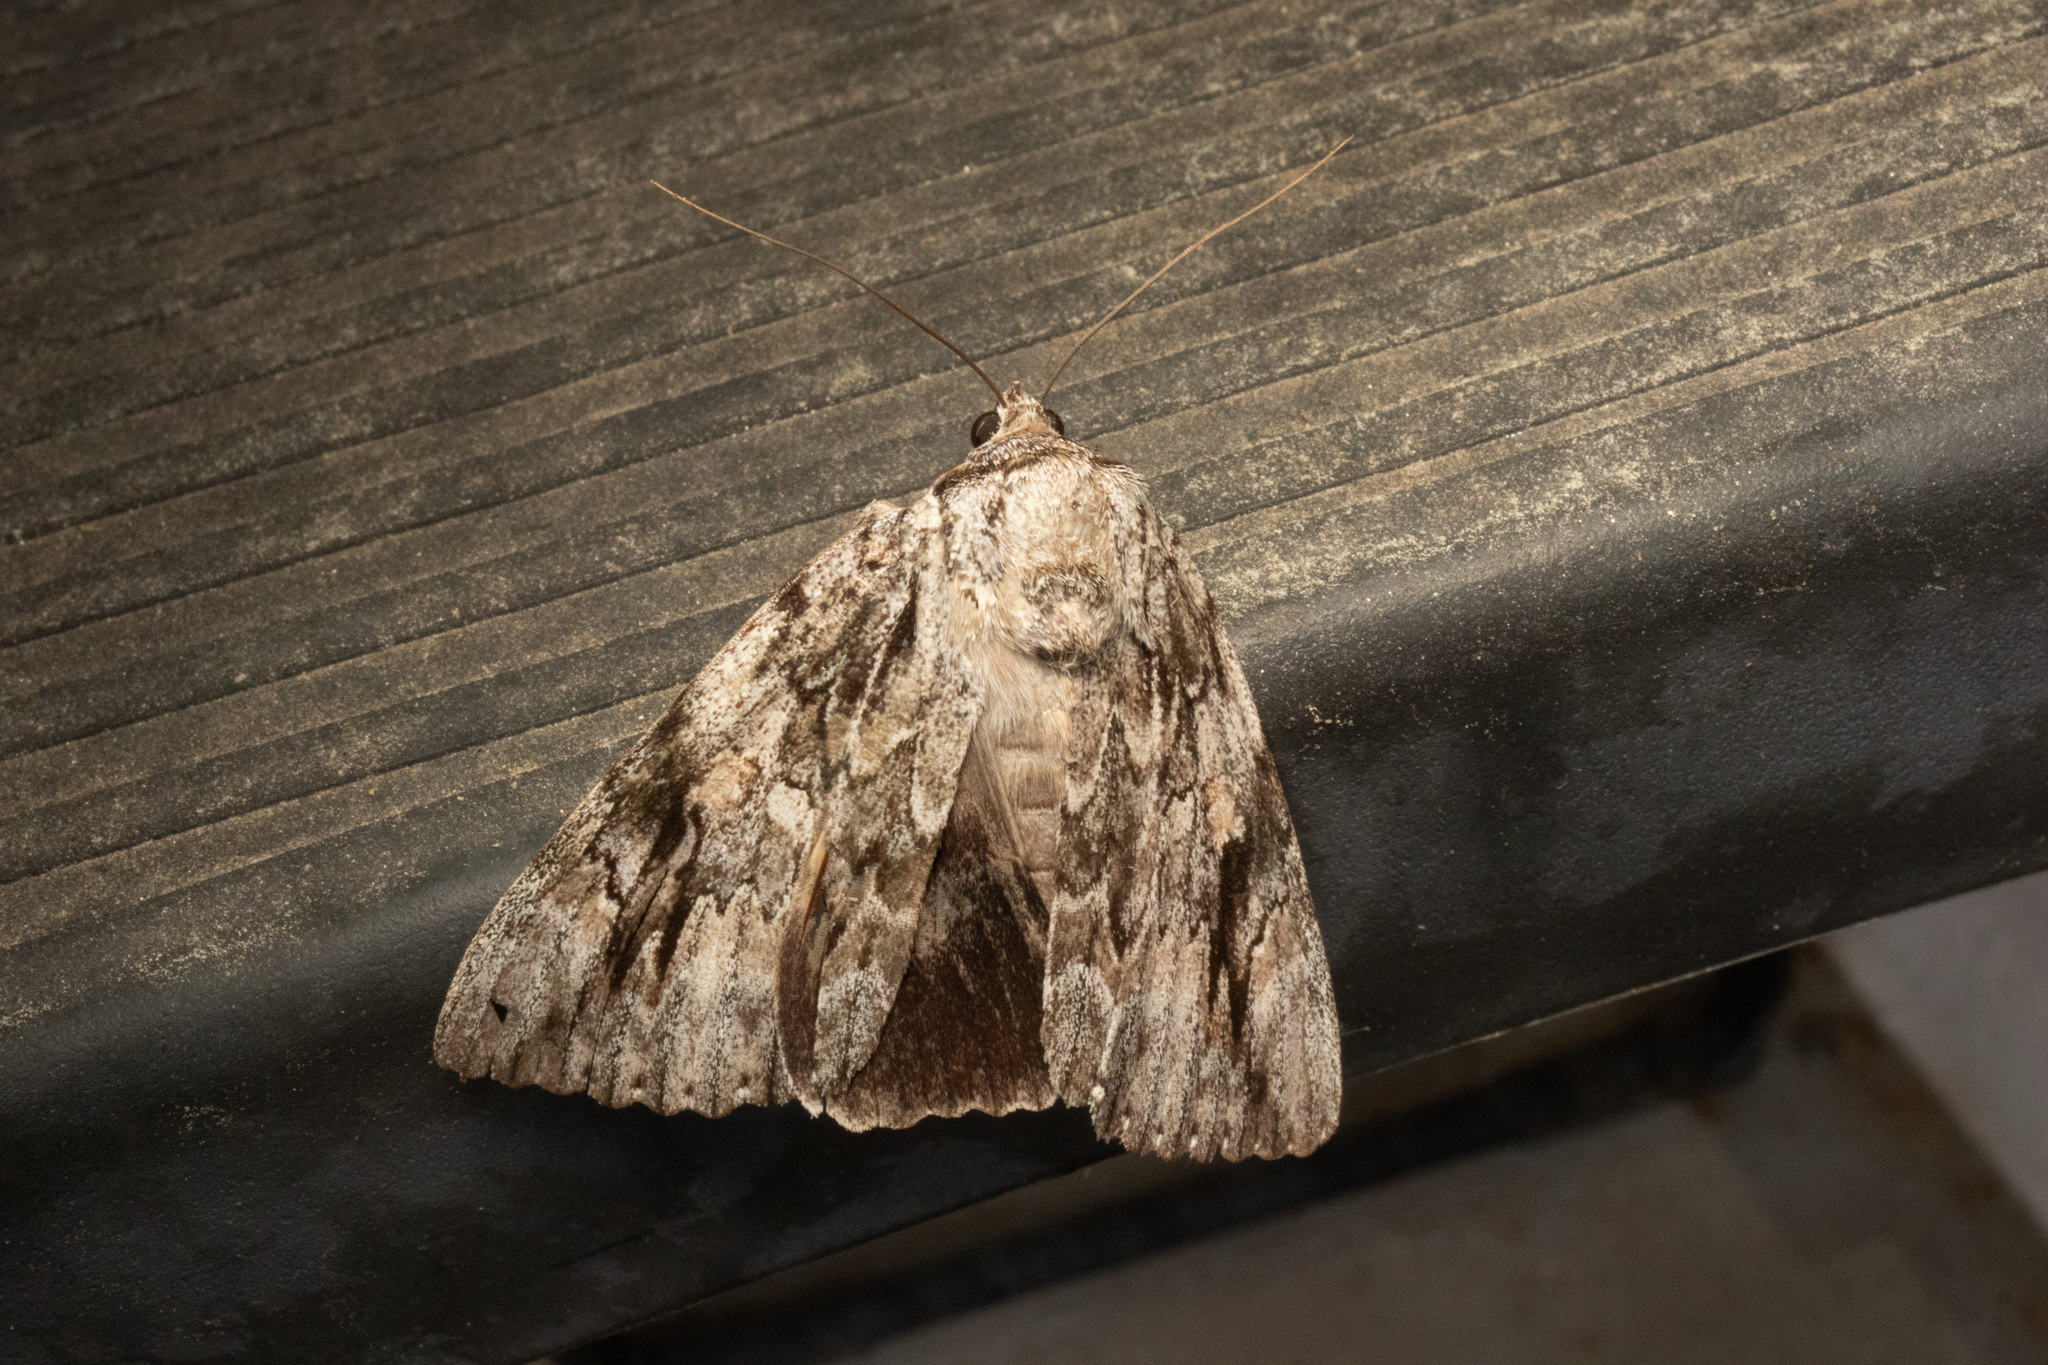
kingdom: Animalia
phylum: Arthropoda
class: Insecta
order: Lepidoptera
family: Erebidae
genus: Catocala
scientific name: Catocala maestosa
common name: Sad underwing
